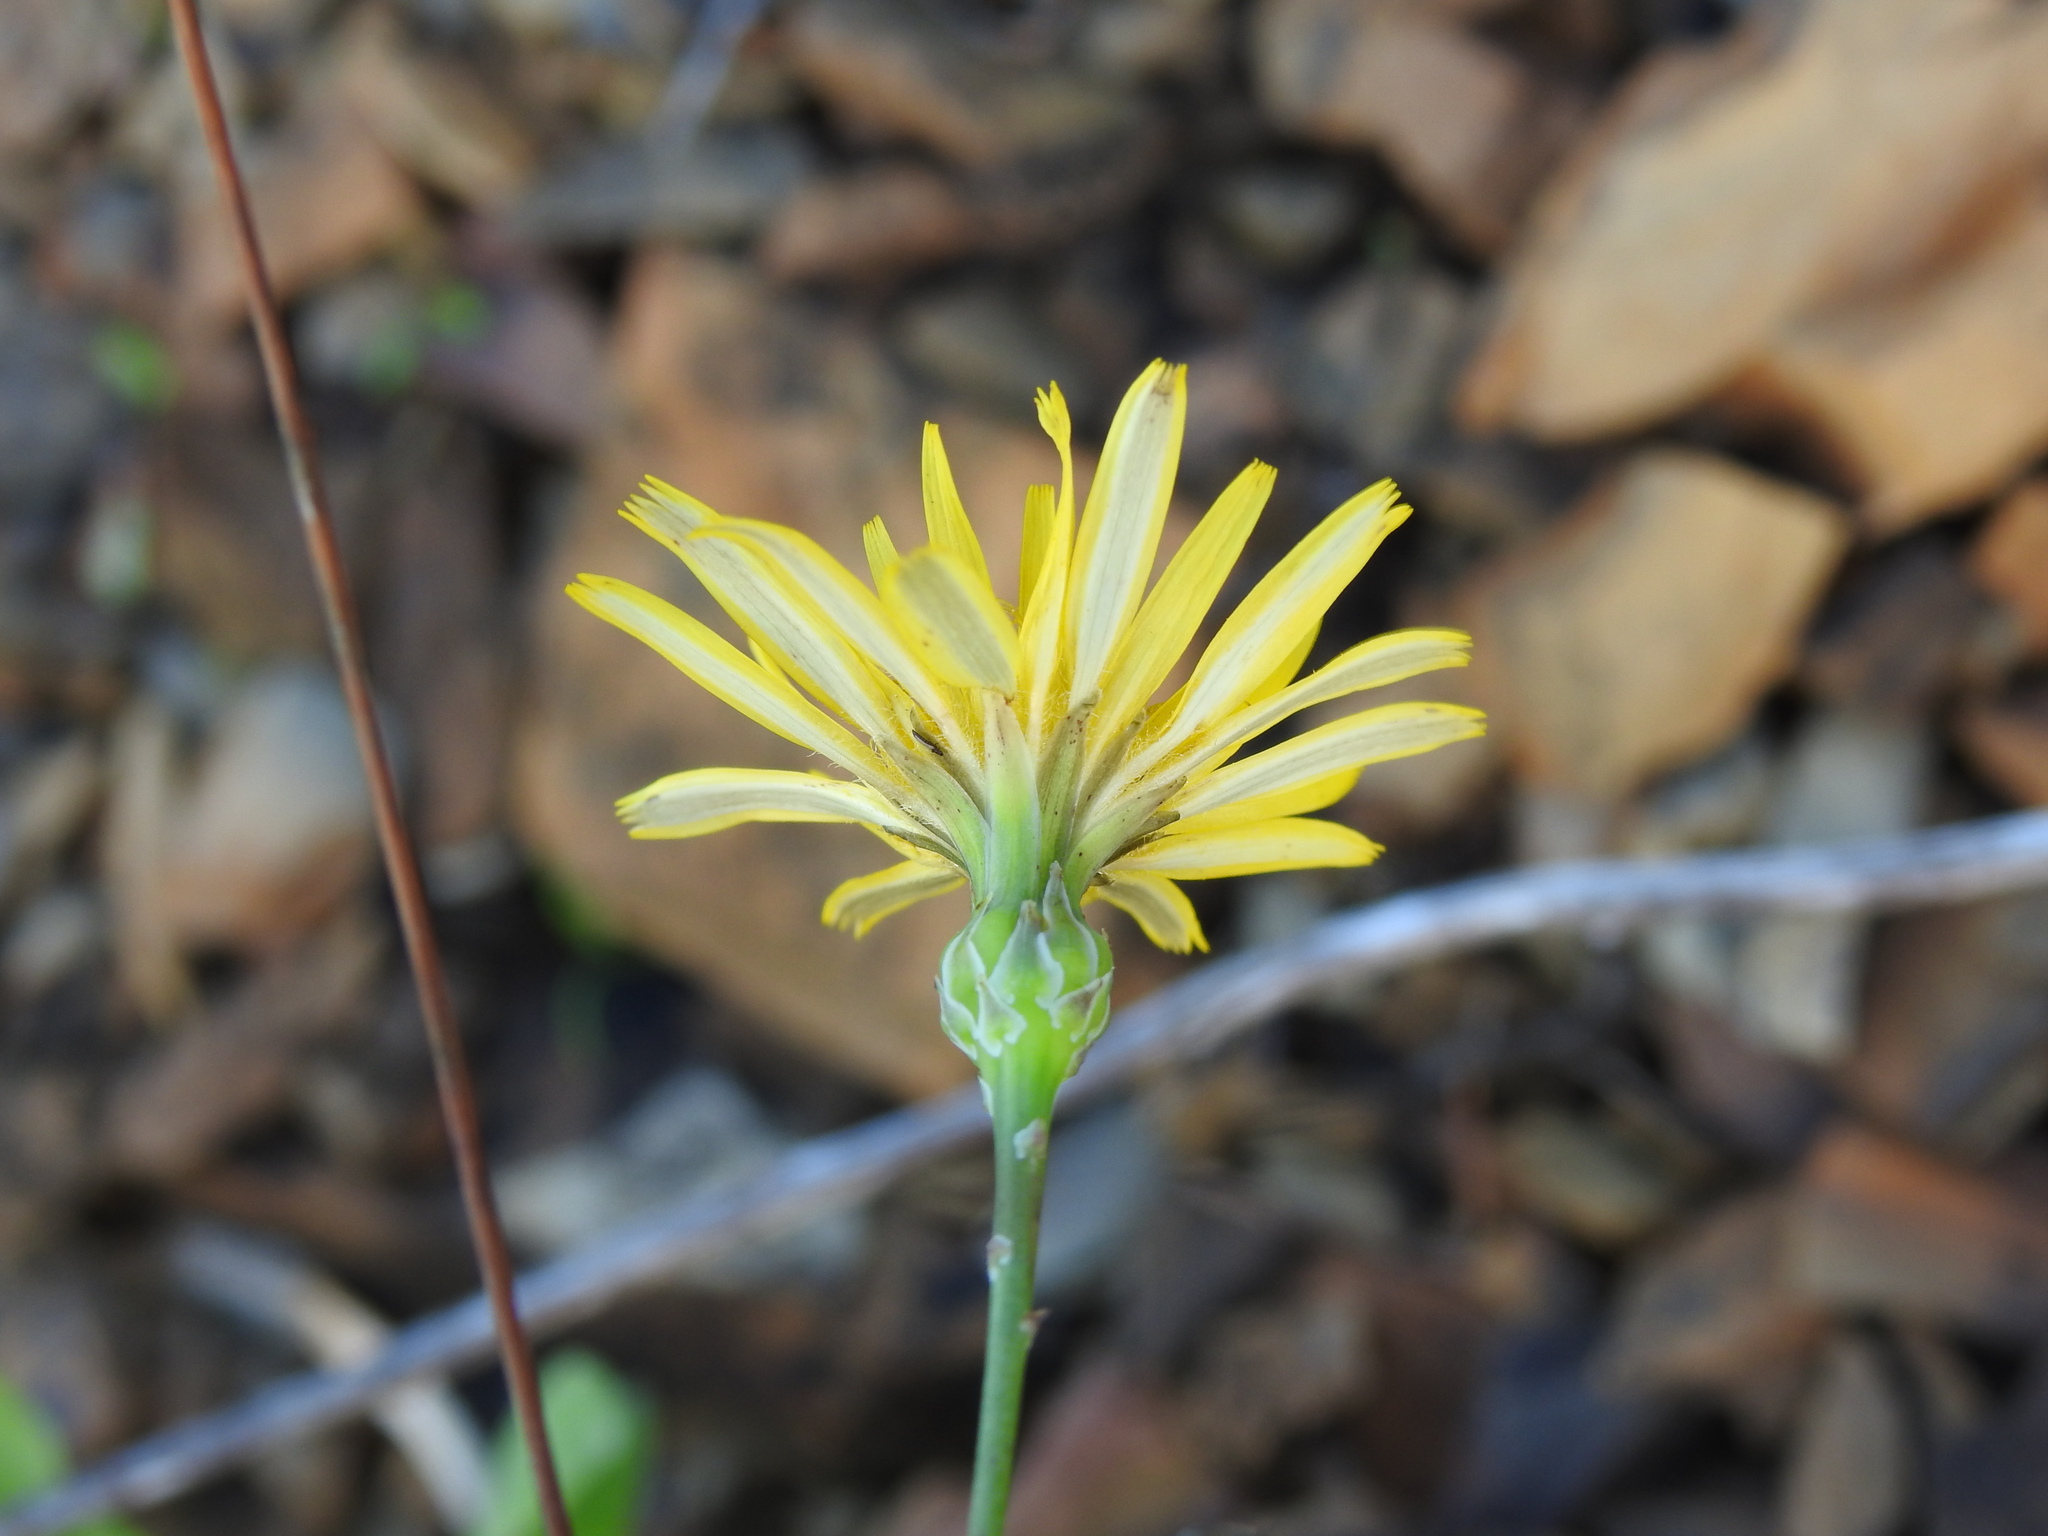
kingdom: Plantae
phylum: Tracheophyta
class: Magnoliopsida
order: Asterales
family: Asteraceae
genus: Reichardia
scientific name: Reichardia picroides
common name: Common brighteyes
